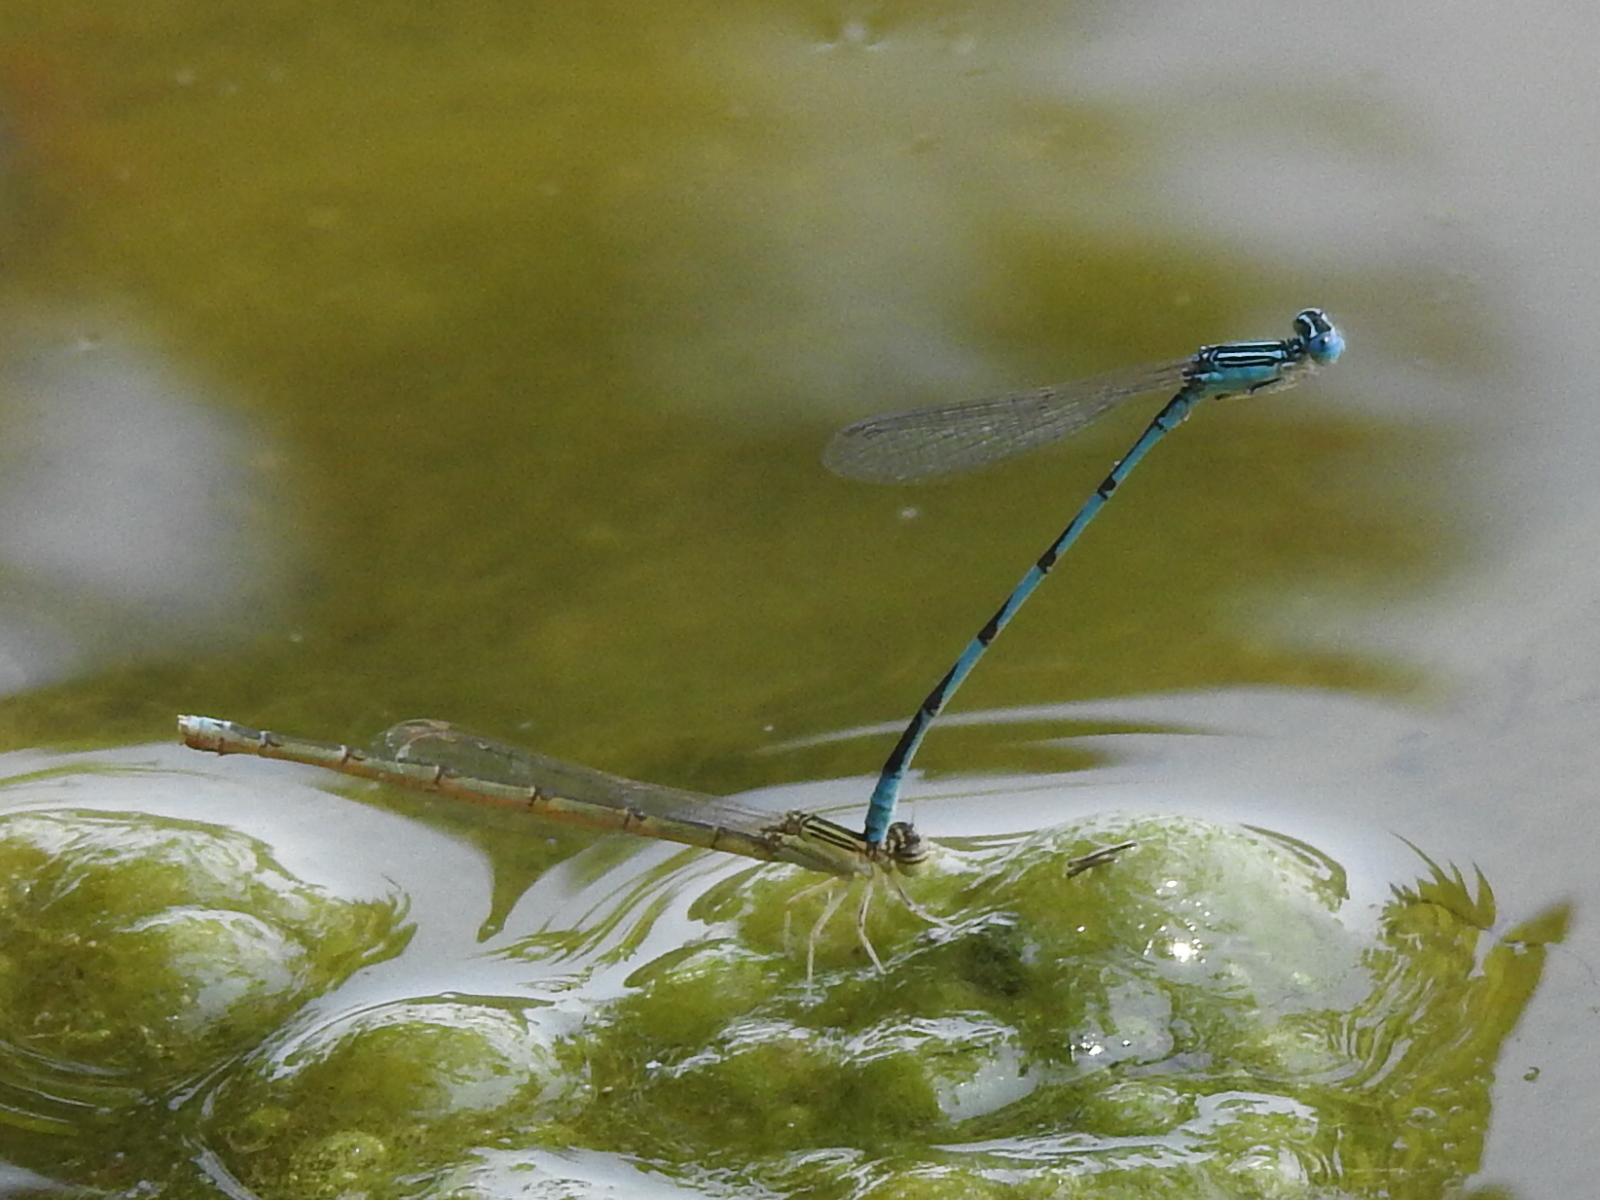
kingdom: Animalia
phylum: Arthropoda
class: Insecta
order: Odonata
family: Coenagrionidae
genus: Enallagma
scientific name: Enallagma basidens
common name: Double-striped bluet
